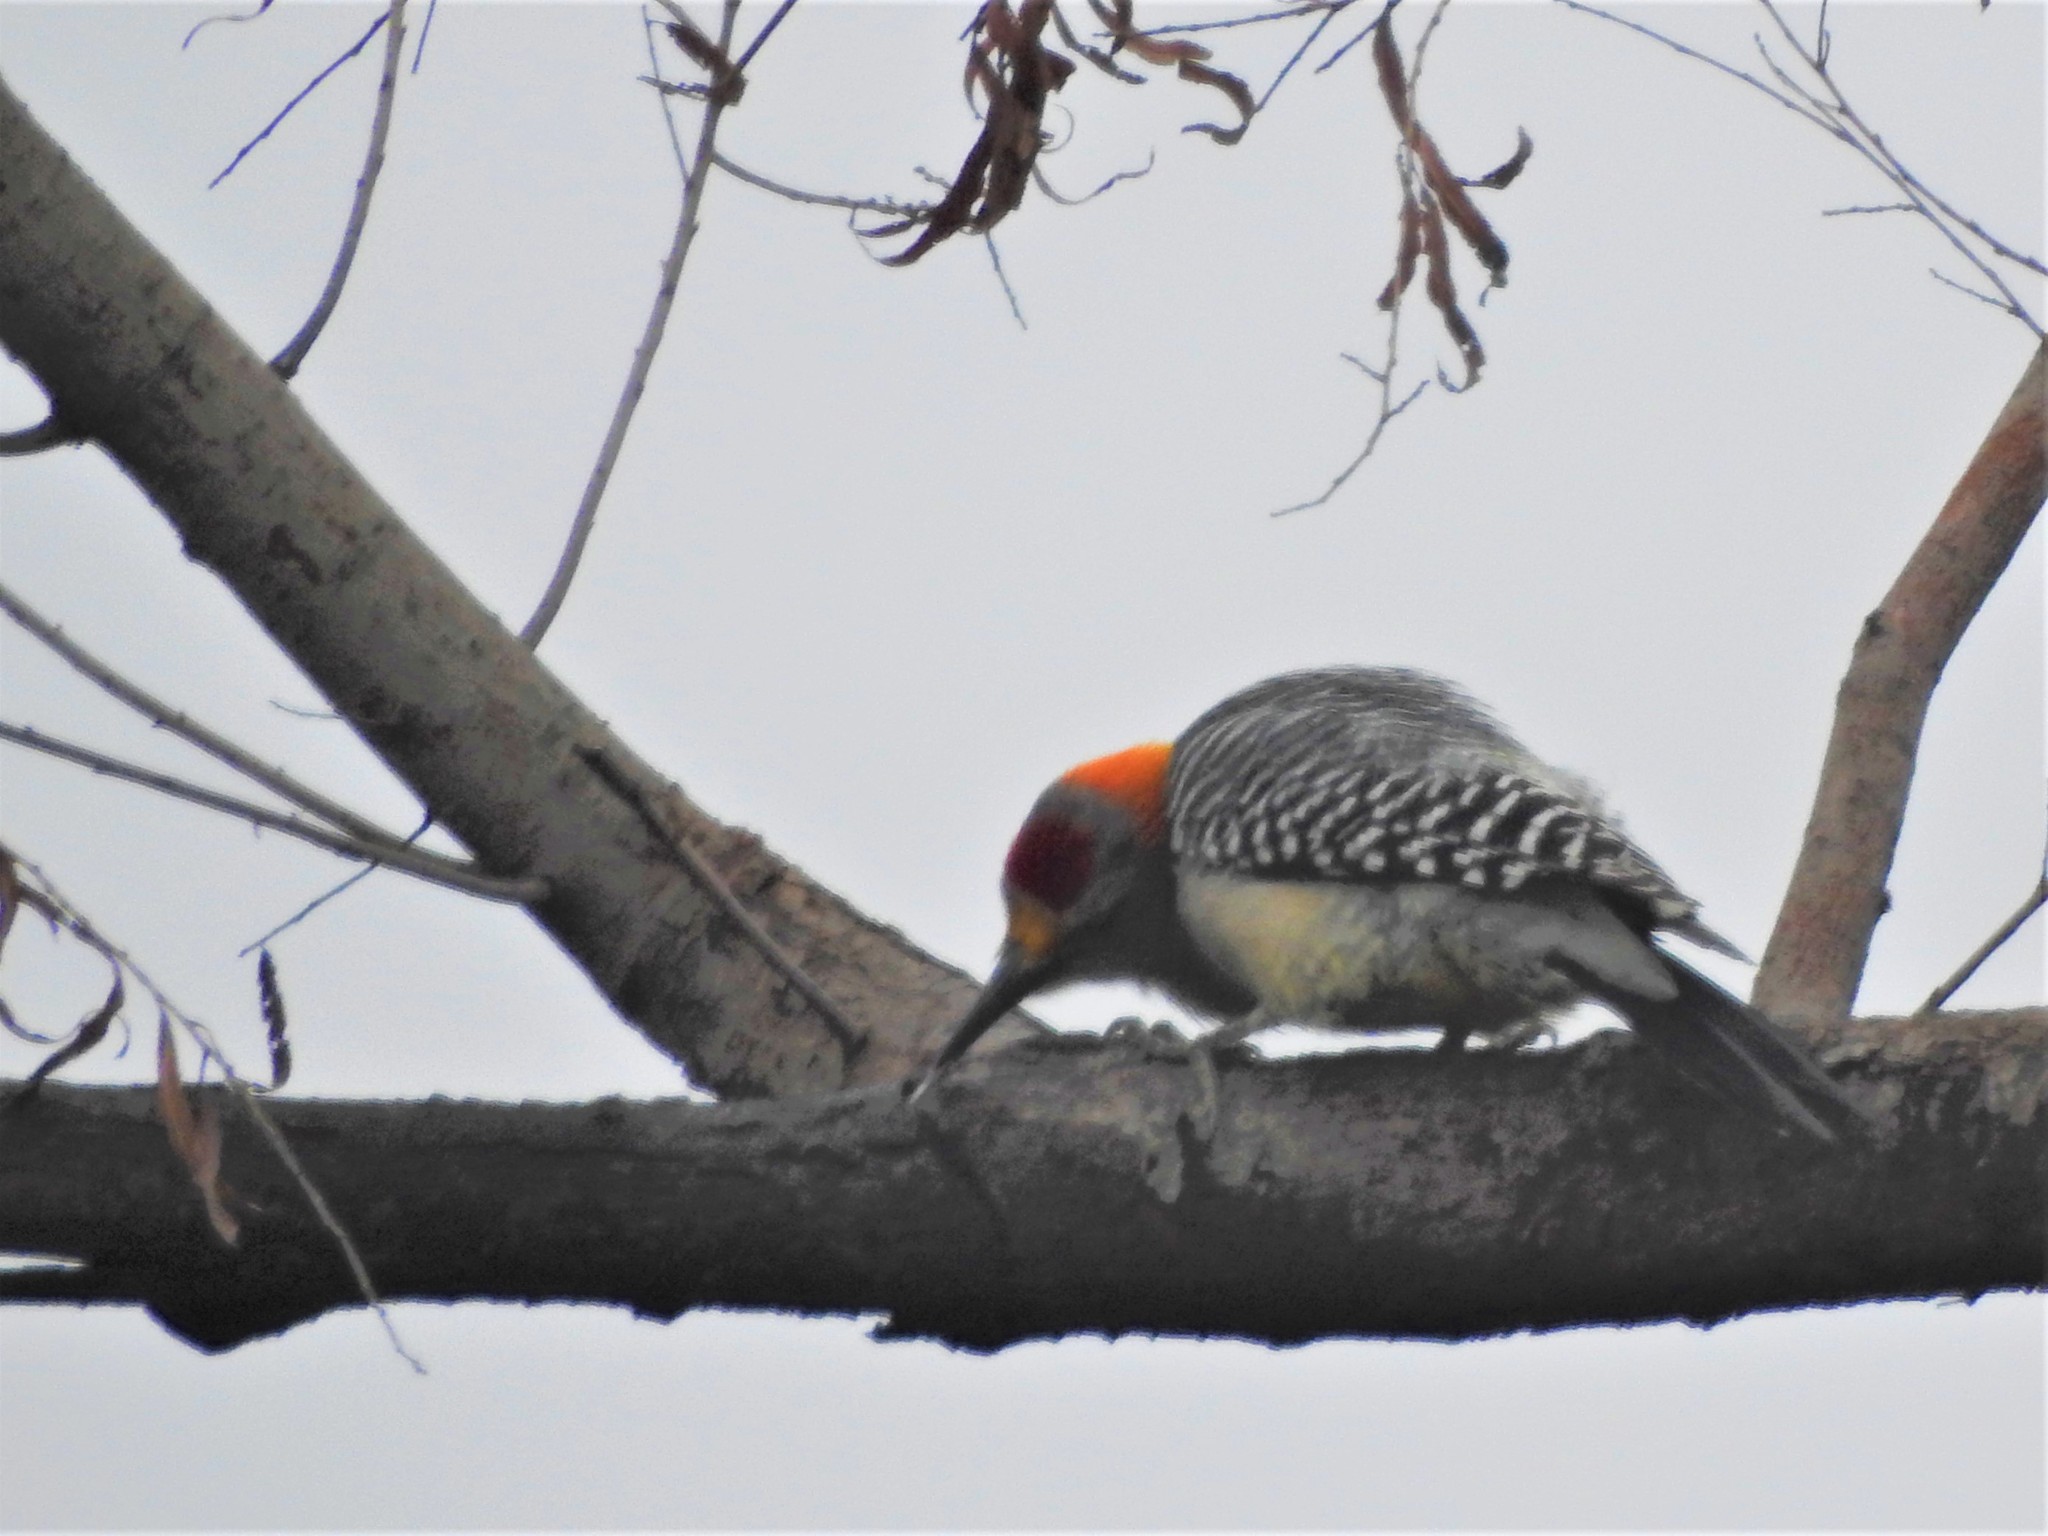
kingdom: Animalia
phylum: Chordata
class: Aves
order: Piciformes
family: Picidae
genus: Melanerpes
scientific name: Melanerpes aurifrons
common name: Golden-fronted woodpecker
